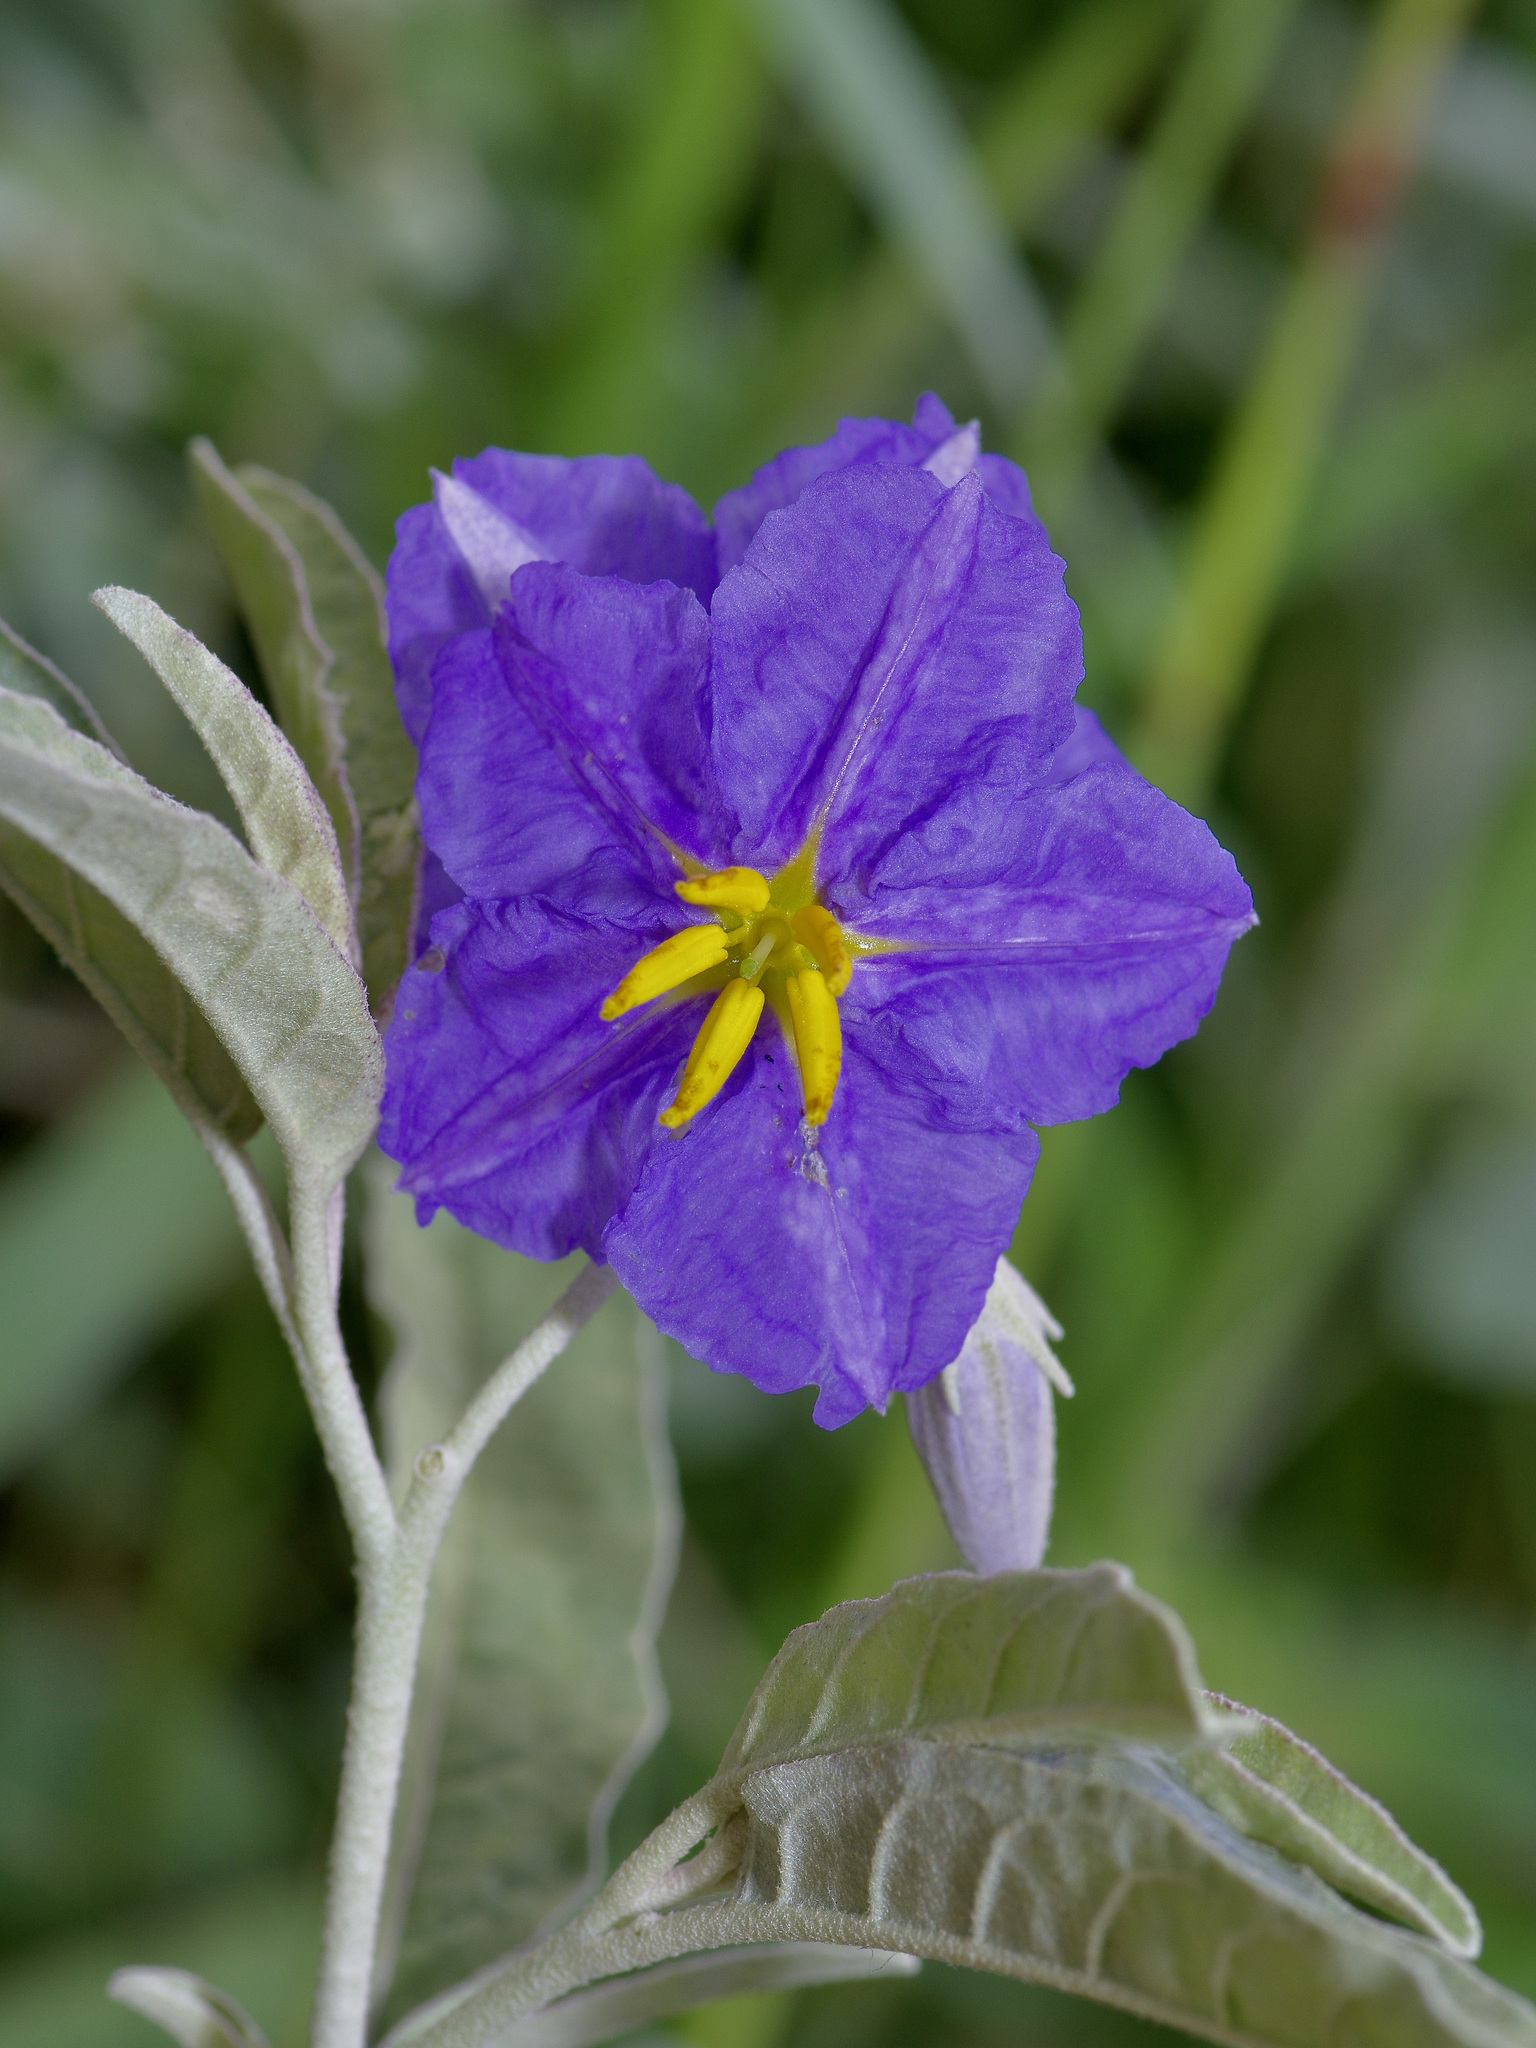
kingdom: Plantae
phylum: Tracheophyta
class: Magnoliopsida
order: Solanales
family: Solanaceae
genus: Solanum
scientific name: Solanum elaeagnifolium
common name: Silverleaf nightshade
